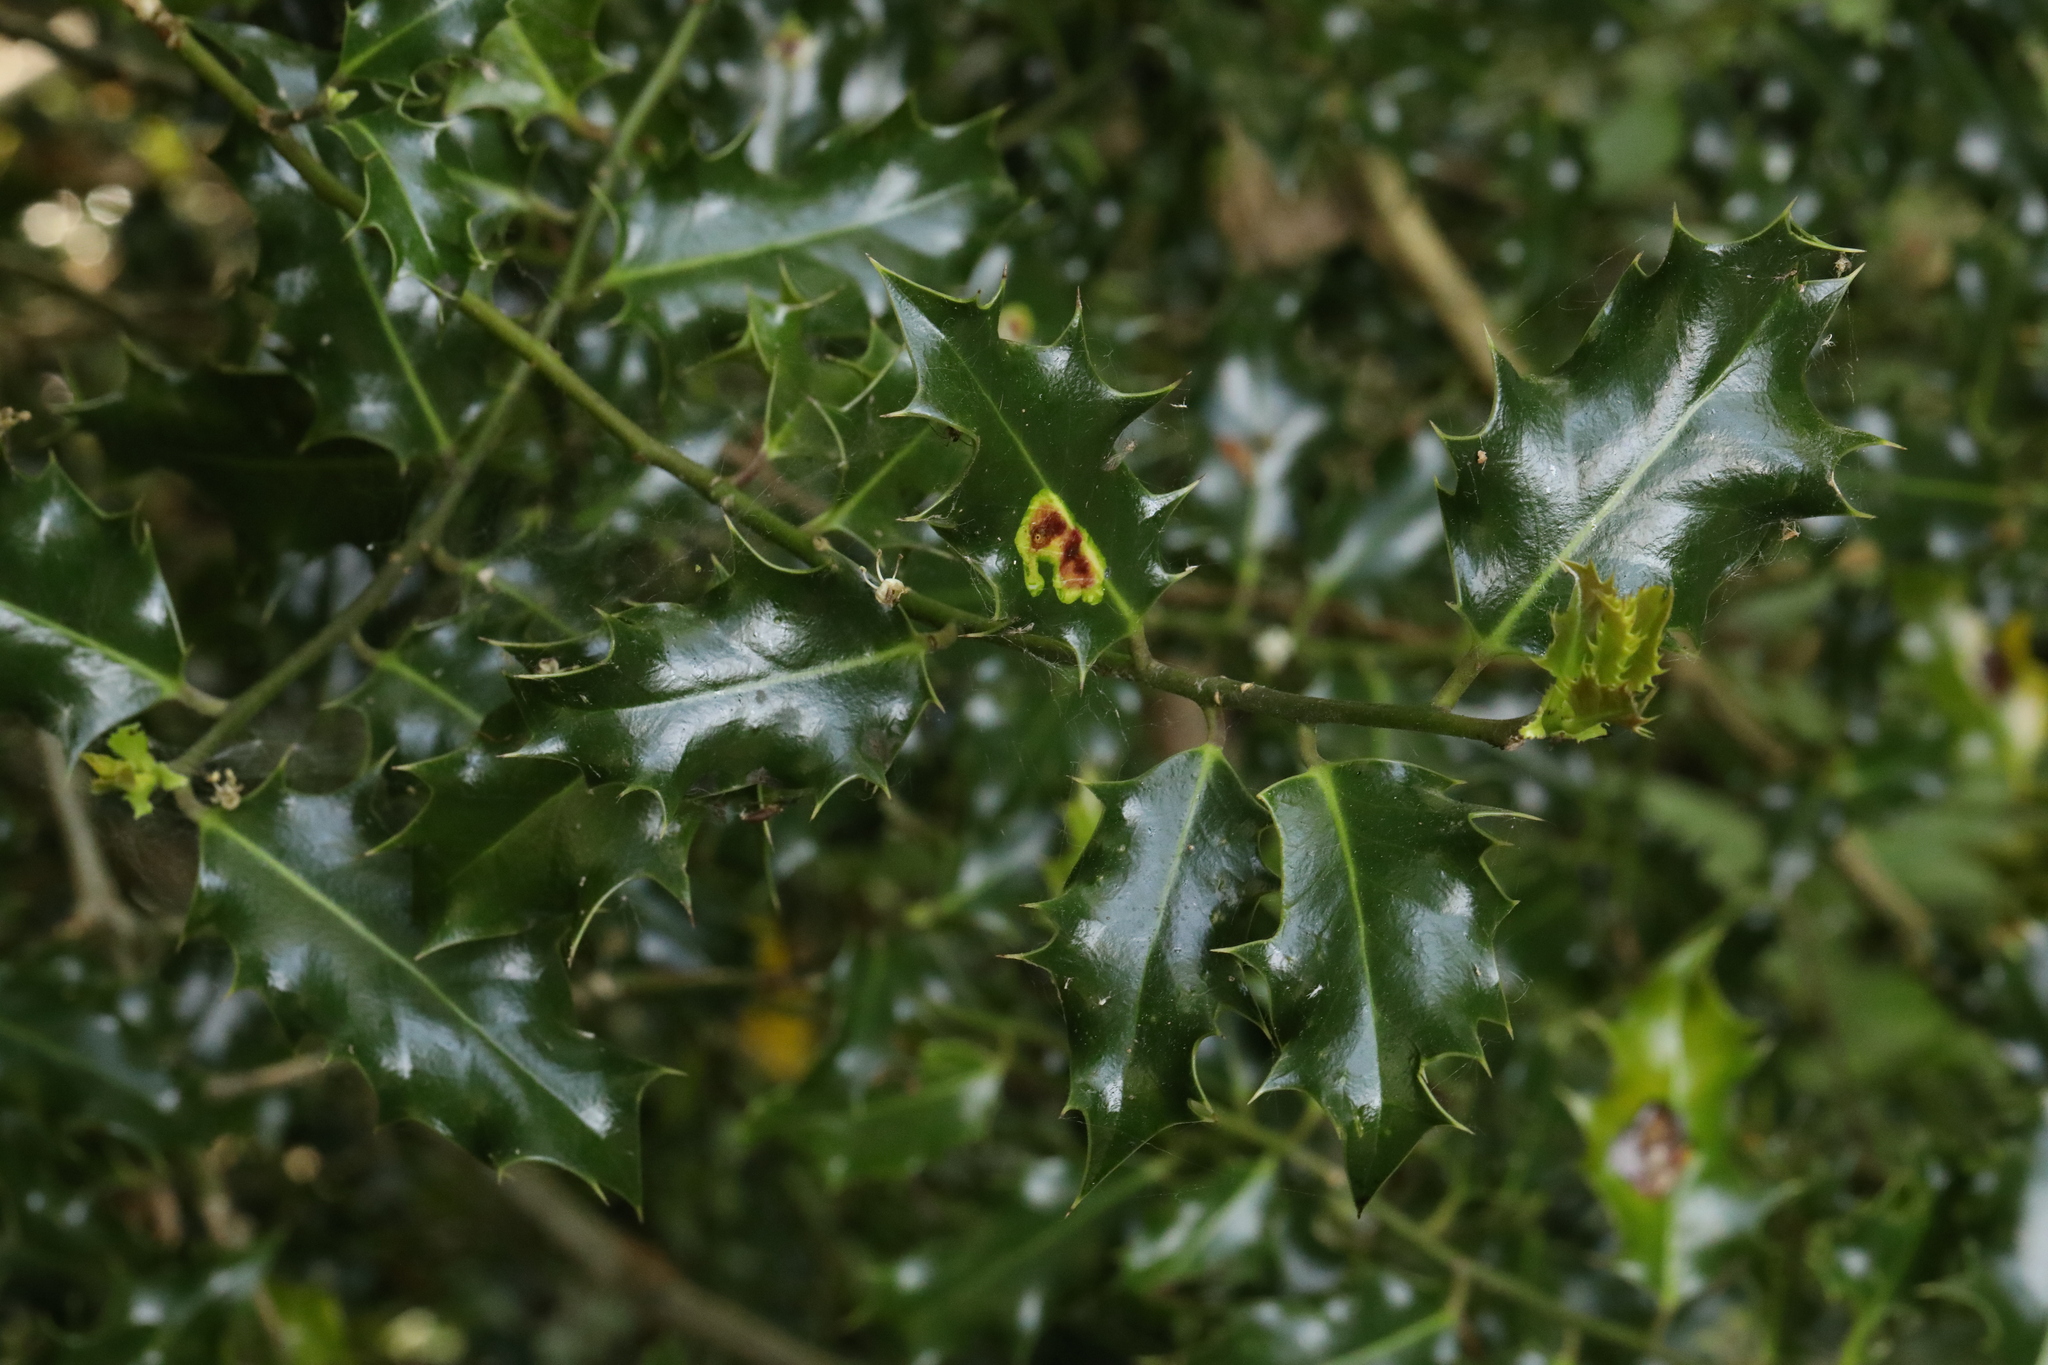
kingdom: Plantae
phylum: Tracheophyta
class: Magnoliopsida
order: Aquifoliales
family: Aquifoliaceae
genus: Ilex
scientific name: Ilex aquifolium
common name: English holly
